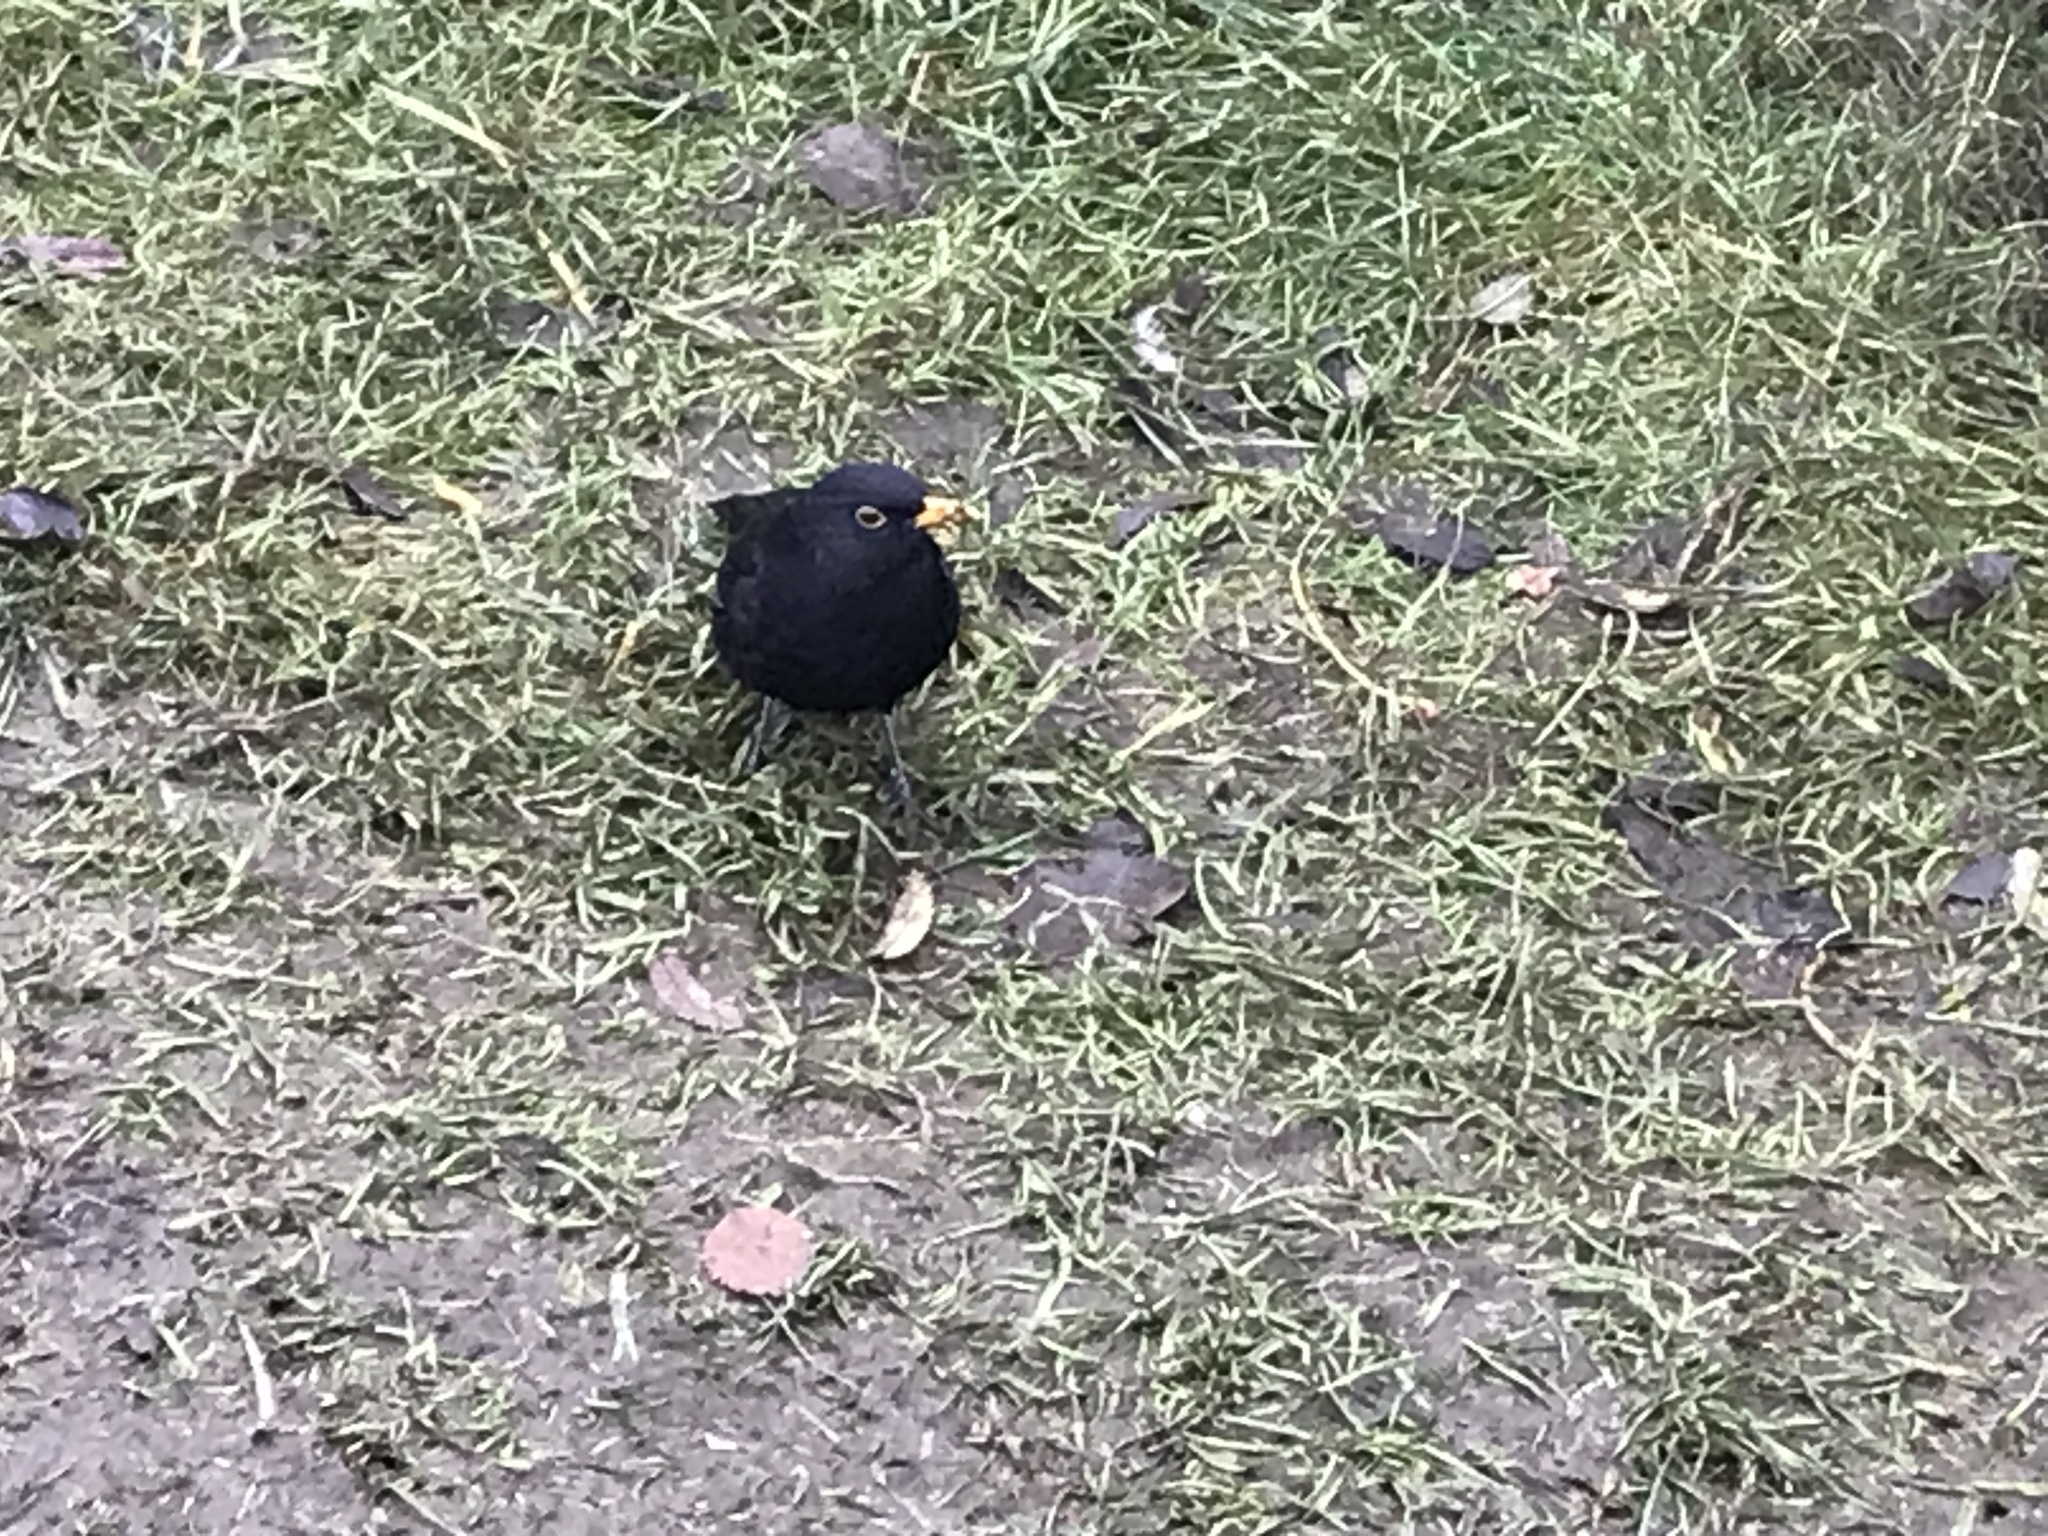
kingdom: Animalia
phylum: Chordata
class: Aves
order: Passeriformes
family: Turdidae
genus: Turdus
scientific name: Turdus merula
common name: Common blackbird
